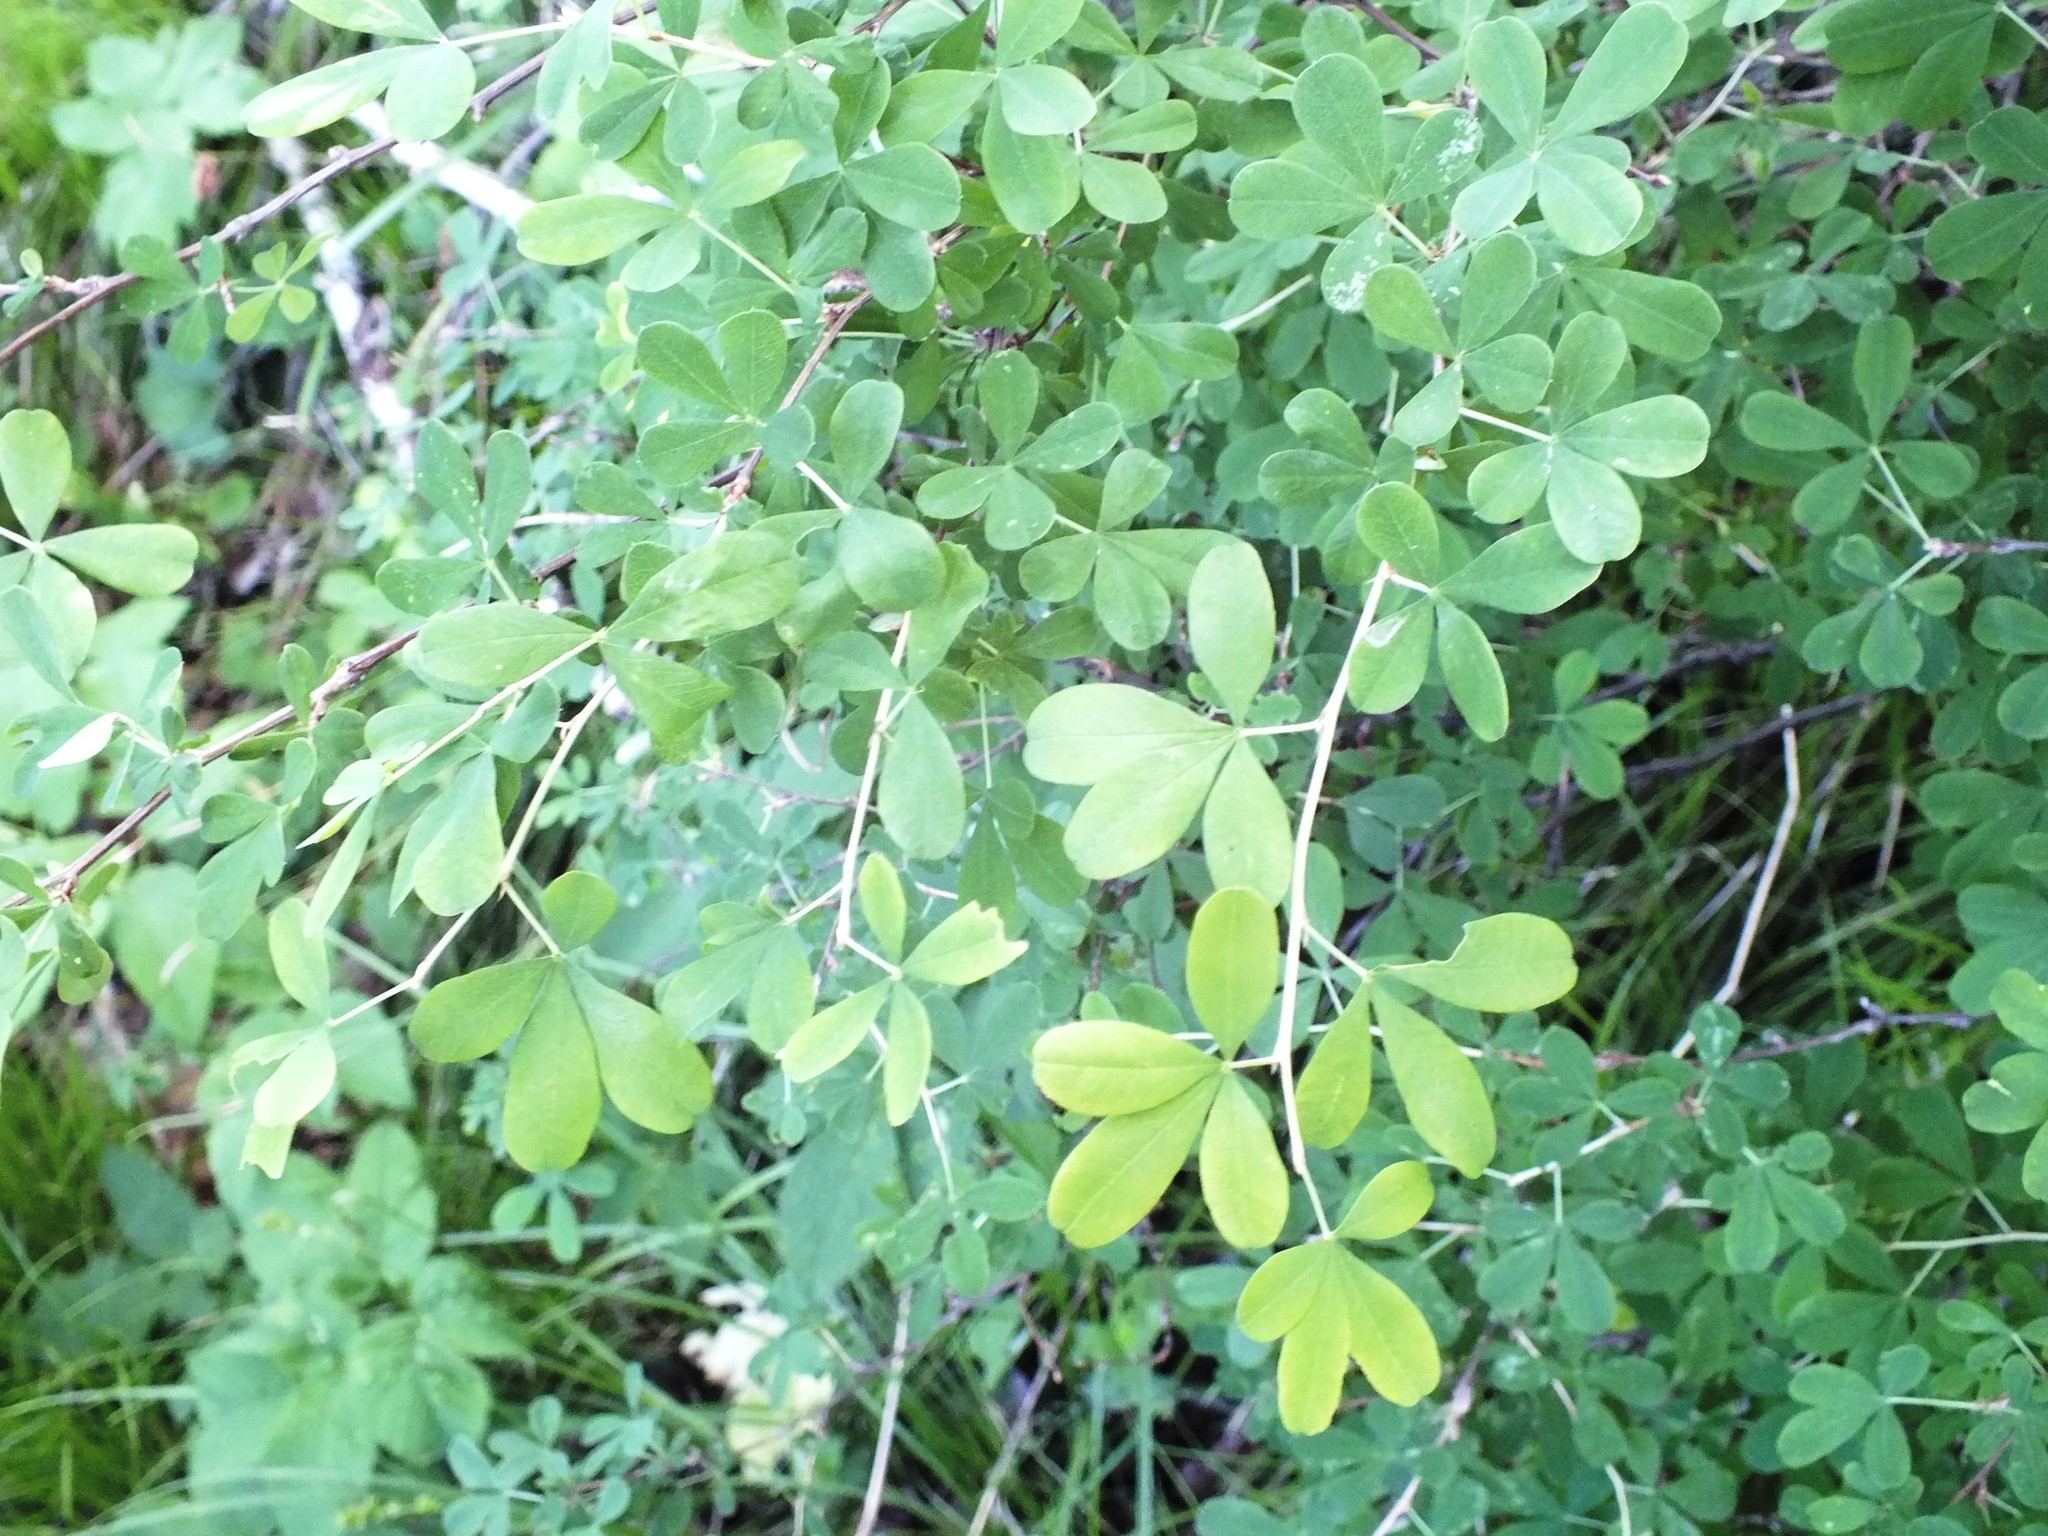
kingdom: Plantae
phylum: Tracheophyta
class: Magnoliopsida
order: Fabales
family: Fabaceae
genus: Caragana
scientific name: Caragana frutex
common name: Russian peashrub
